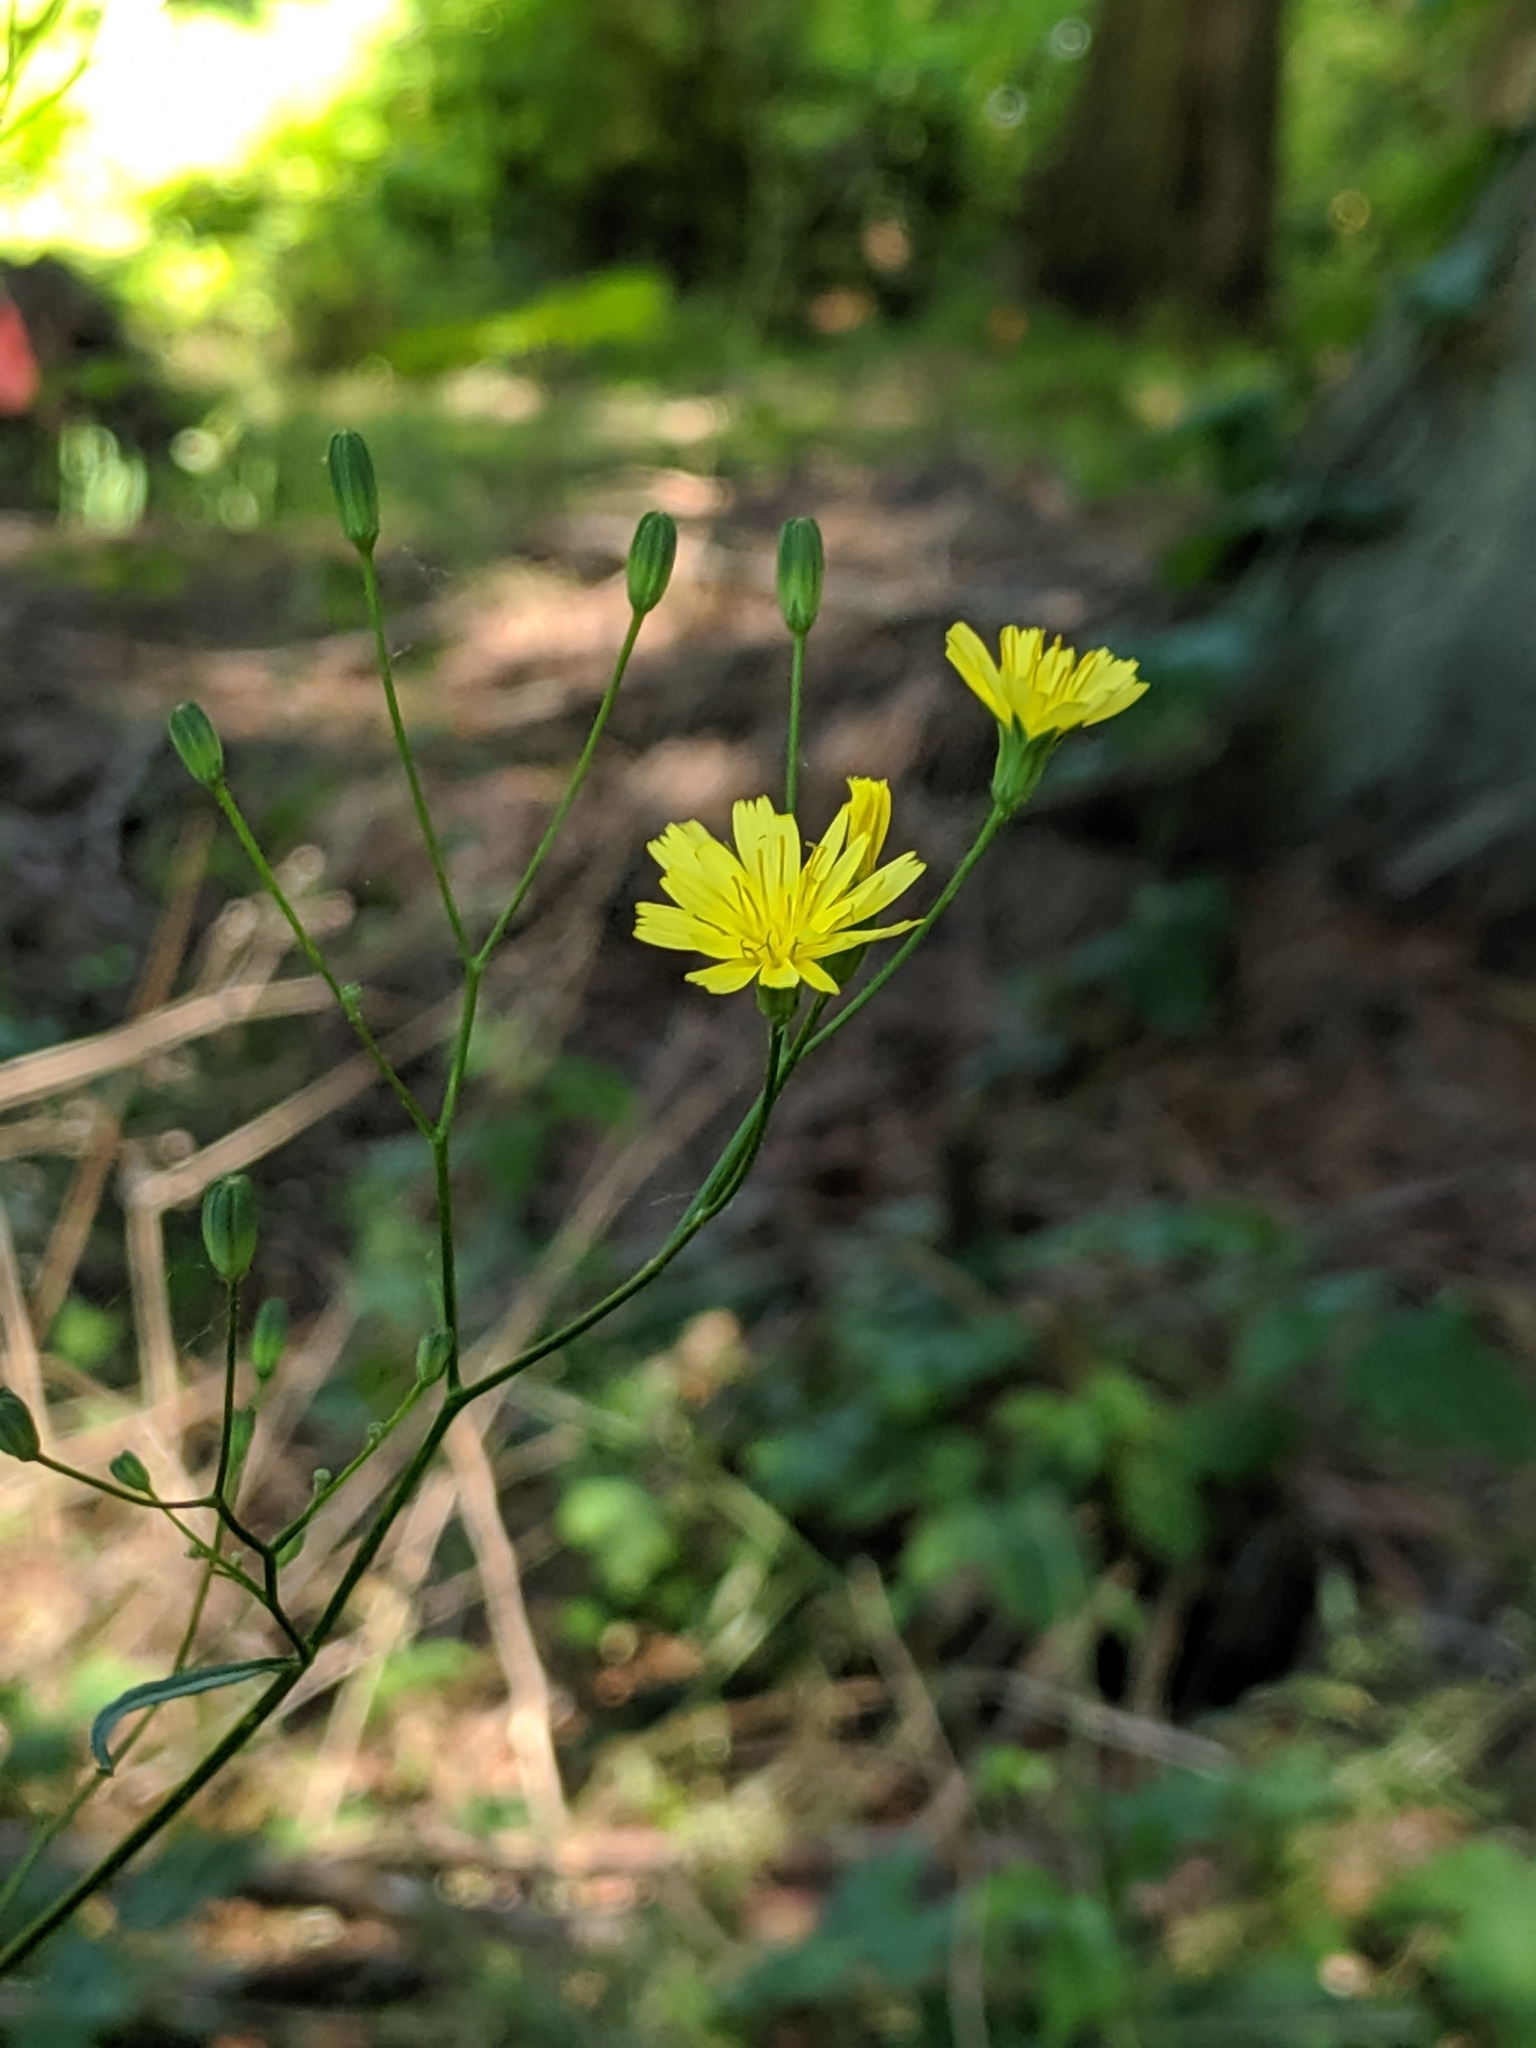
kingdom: Plantae
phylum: Tracheophyta
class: Magnoliopsida
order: Asterales
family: Asteraceae
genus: Lapsana
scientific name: Lapsana communis
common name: Nipplewort
